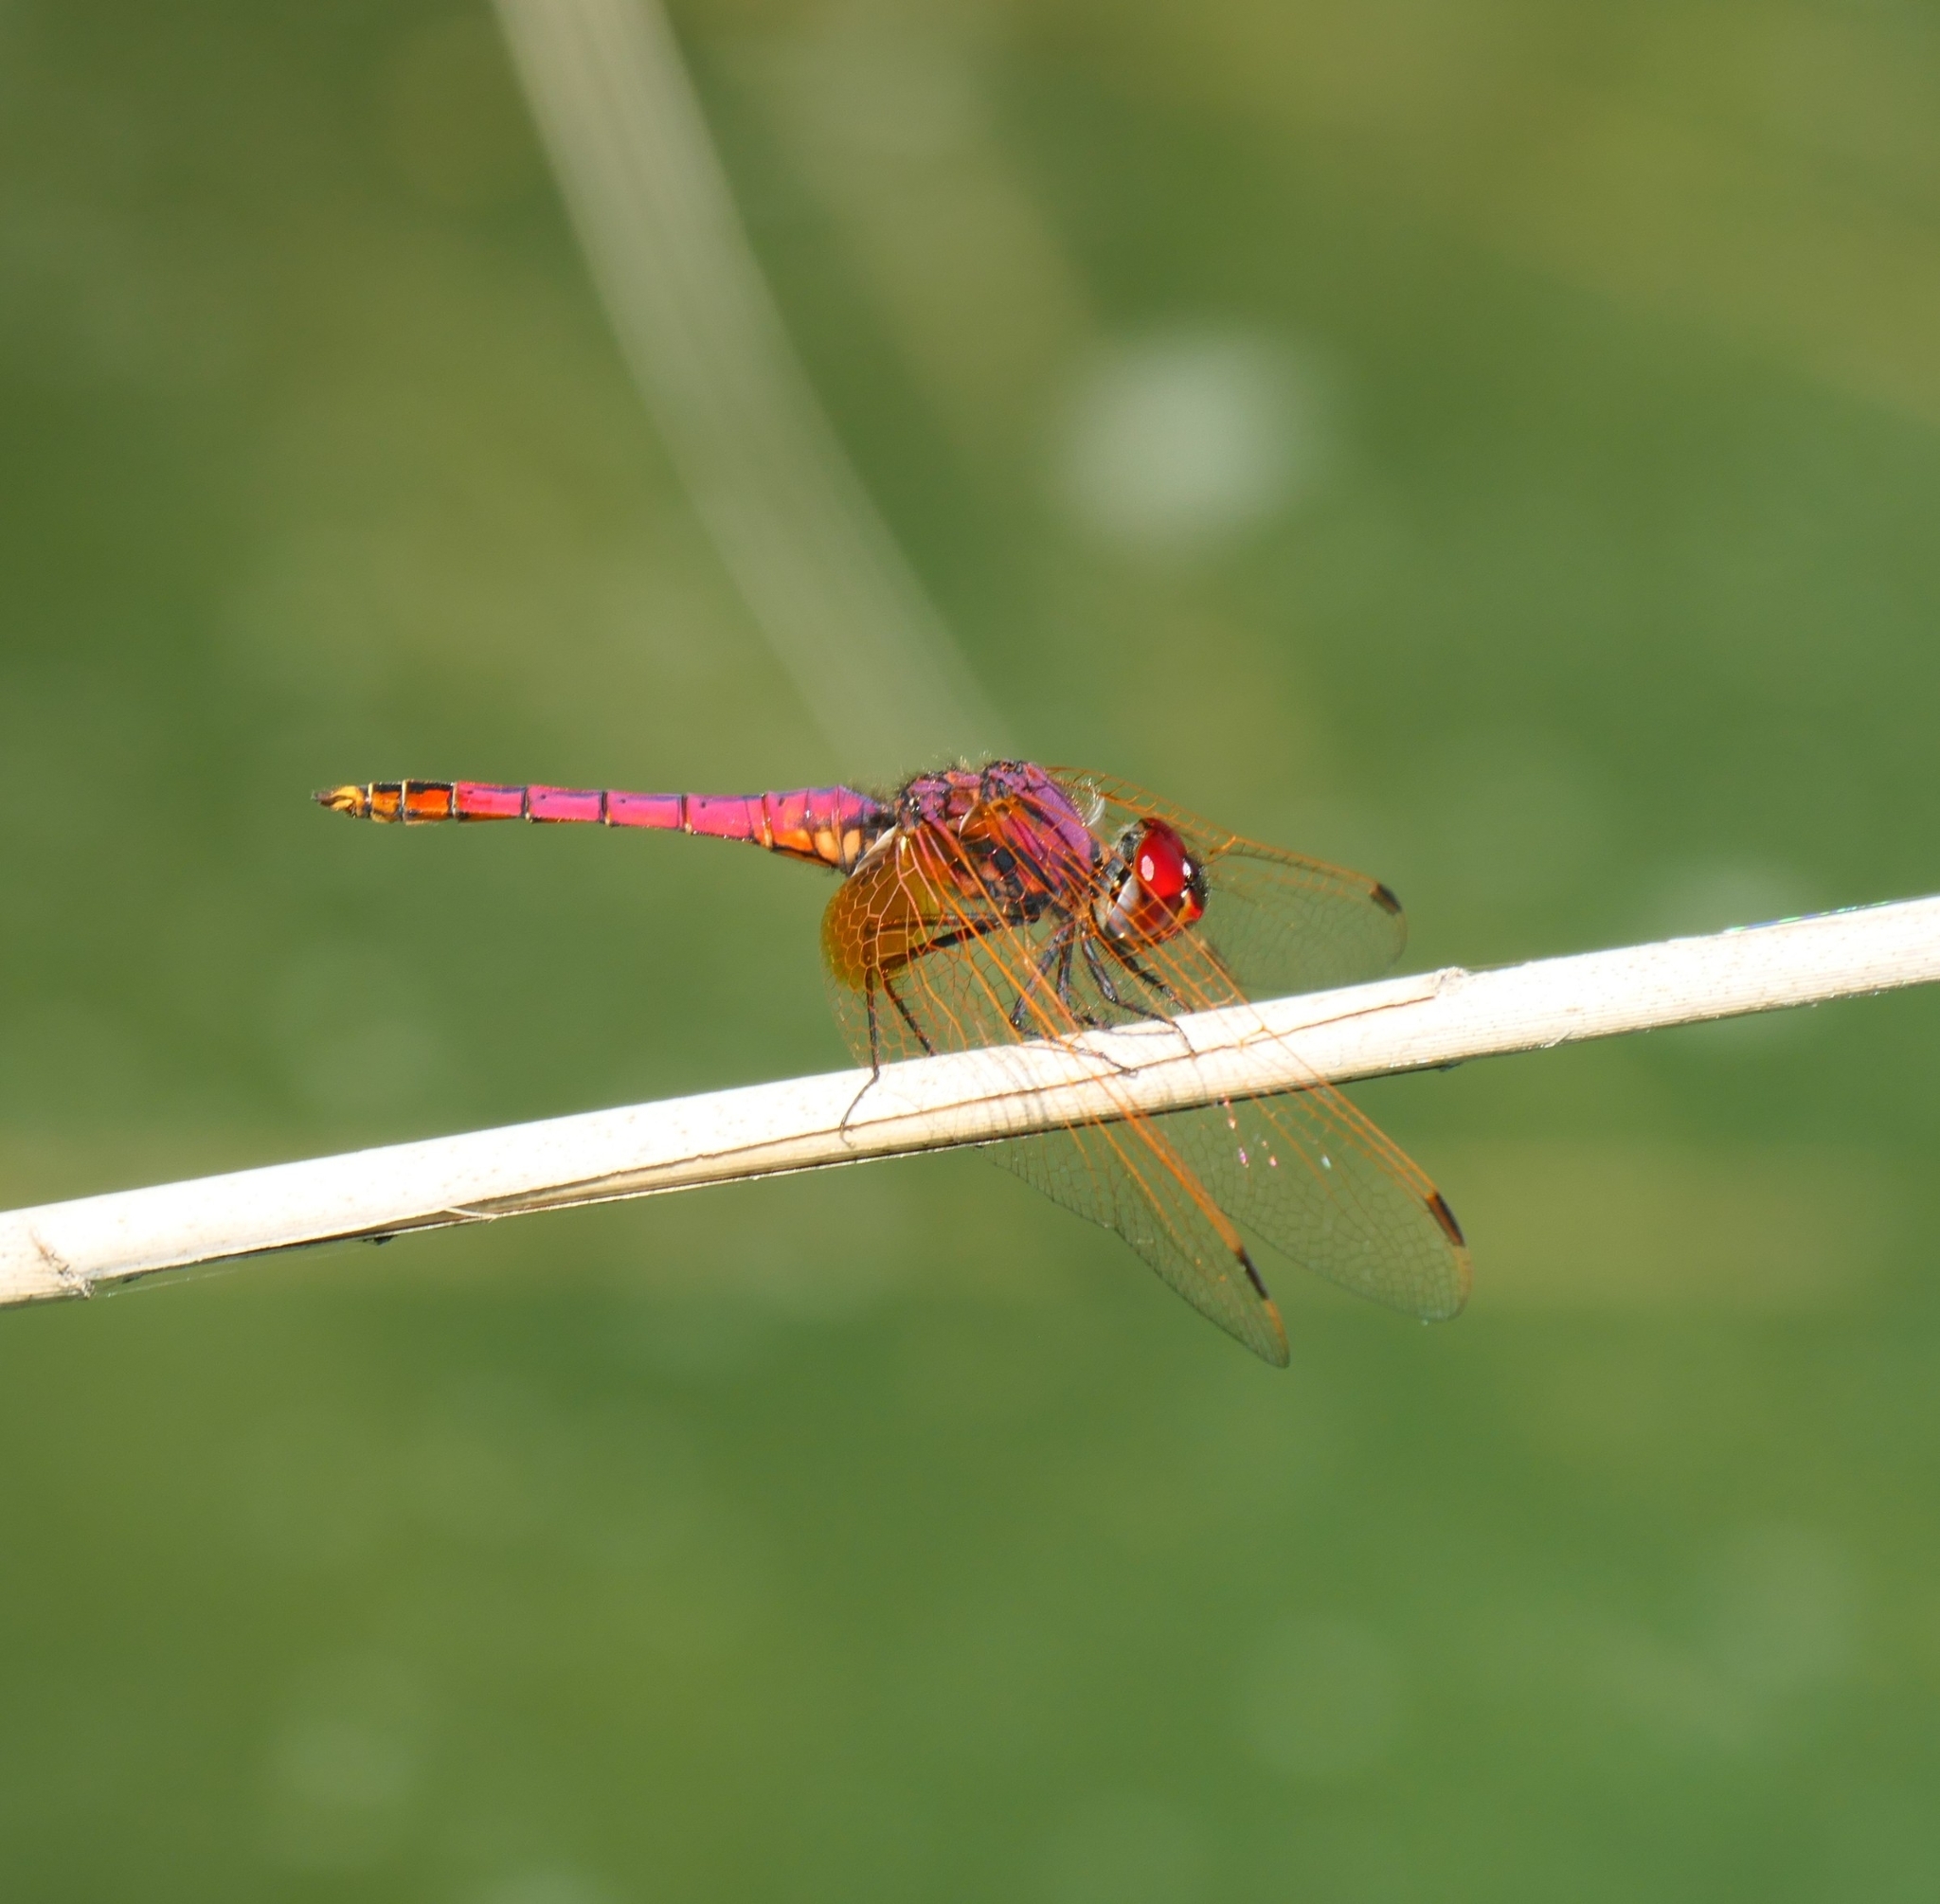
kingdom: Animalia
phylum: Arthropoda
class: Insecta
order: Odonata
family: Libellulidae
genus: Trithemis
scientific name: Trithemis annulata
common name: Violet dropwing
